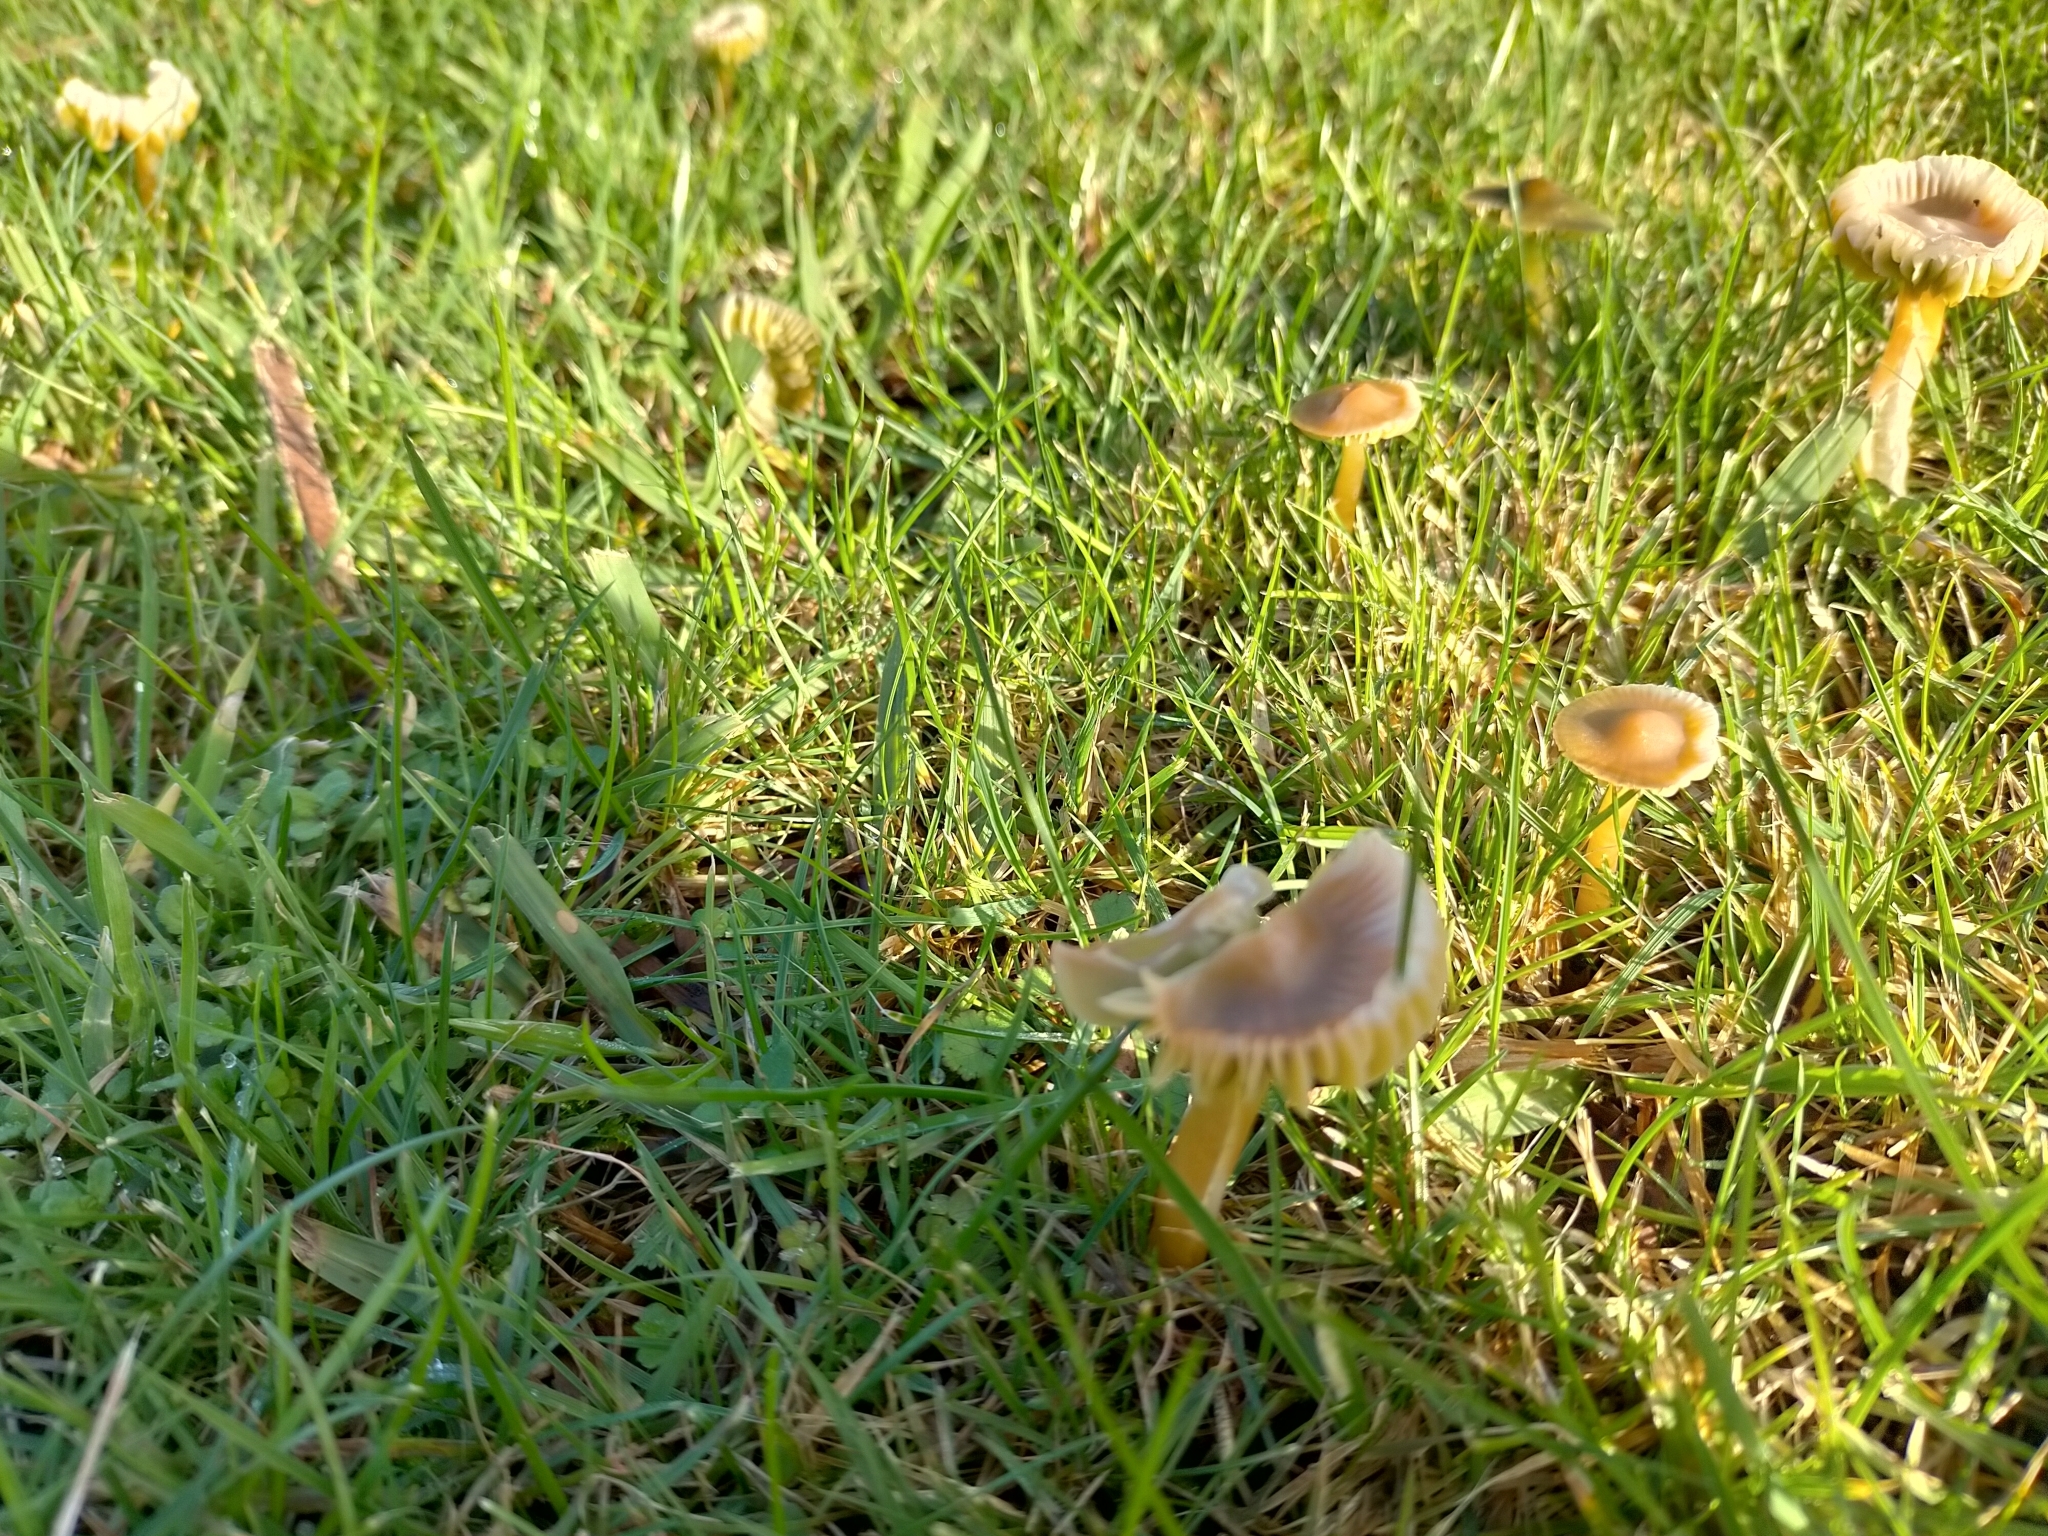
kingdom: Fungi
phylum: Basidiomycota
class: Agaricomycetes
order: Agaricales
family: Hygrophoraceae
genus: Gliophorus
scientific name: Gliophorus psittacinus
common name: Parrot wax-cap
